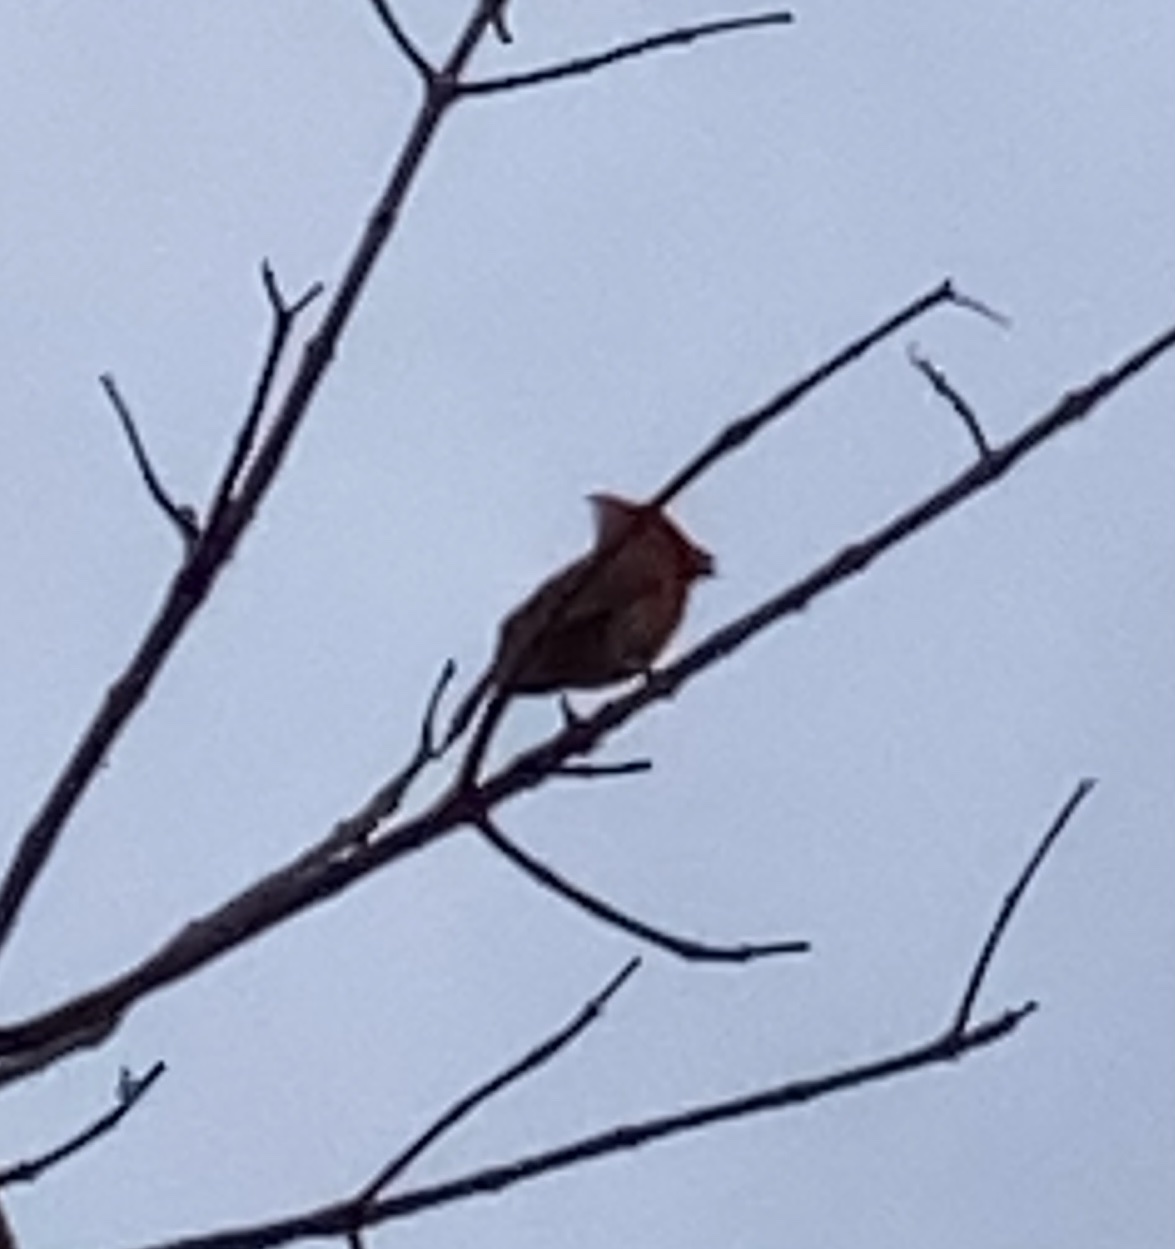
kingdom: Animalia
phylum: Chordata
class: Aves
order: Passeriformes
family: Cardinalidae
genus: Cardinalis
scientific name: Cardinalis cardinalis
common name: Northern cardinal
